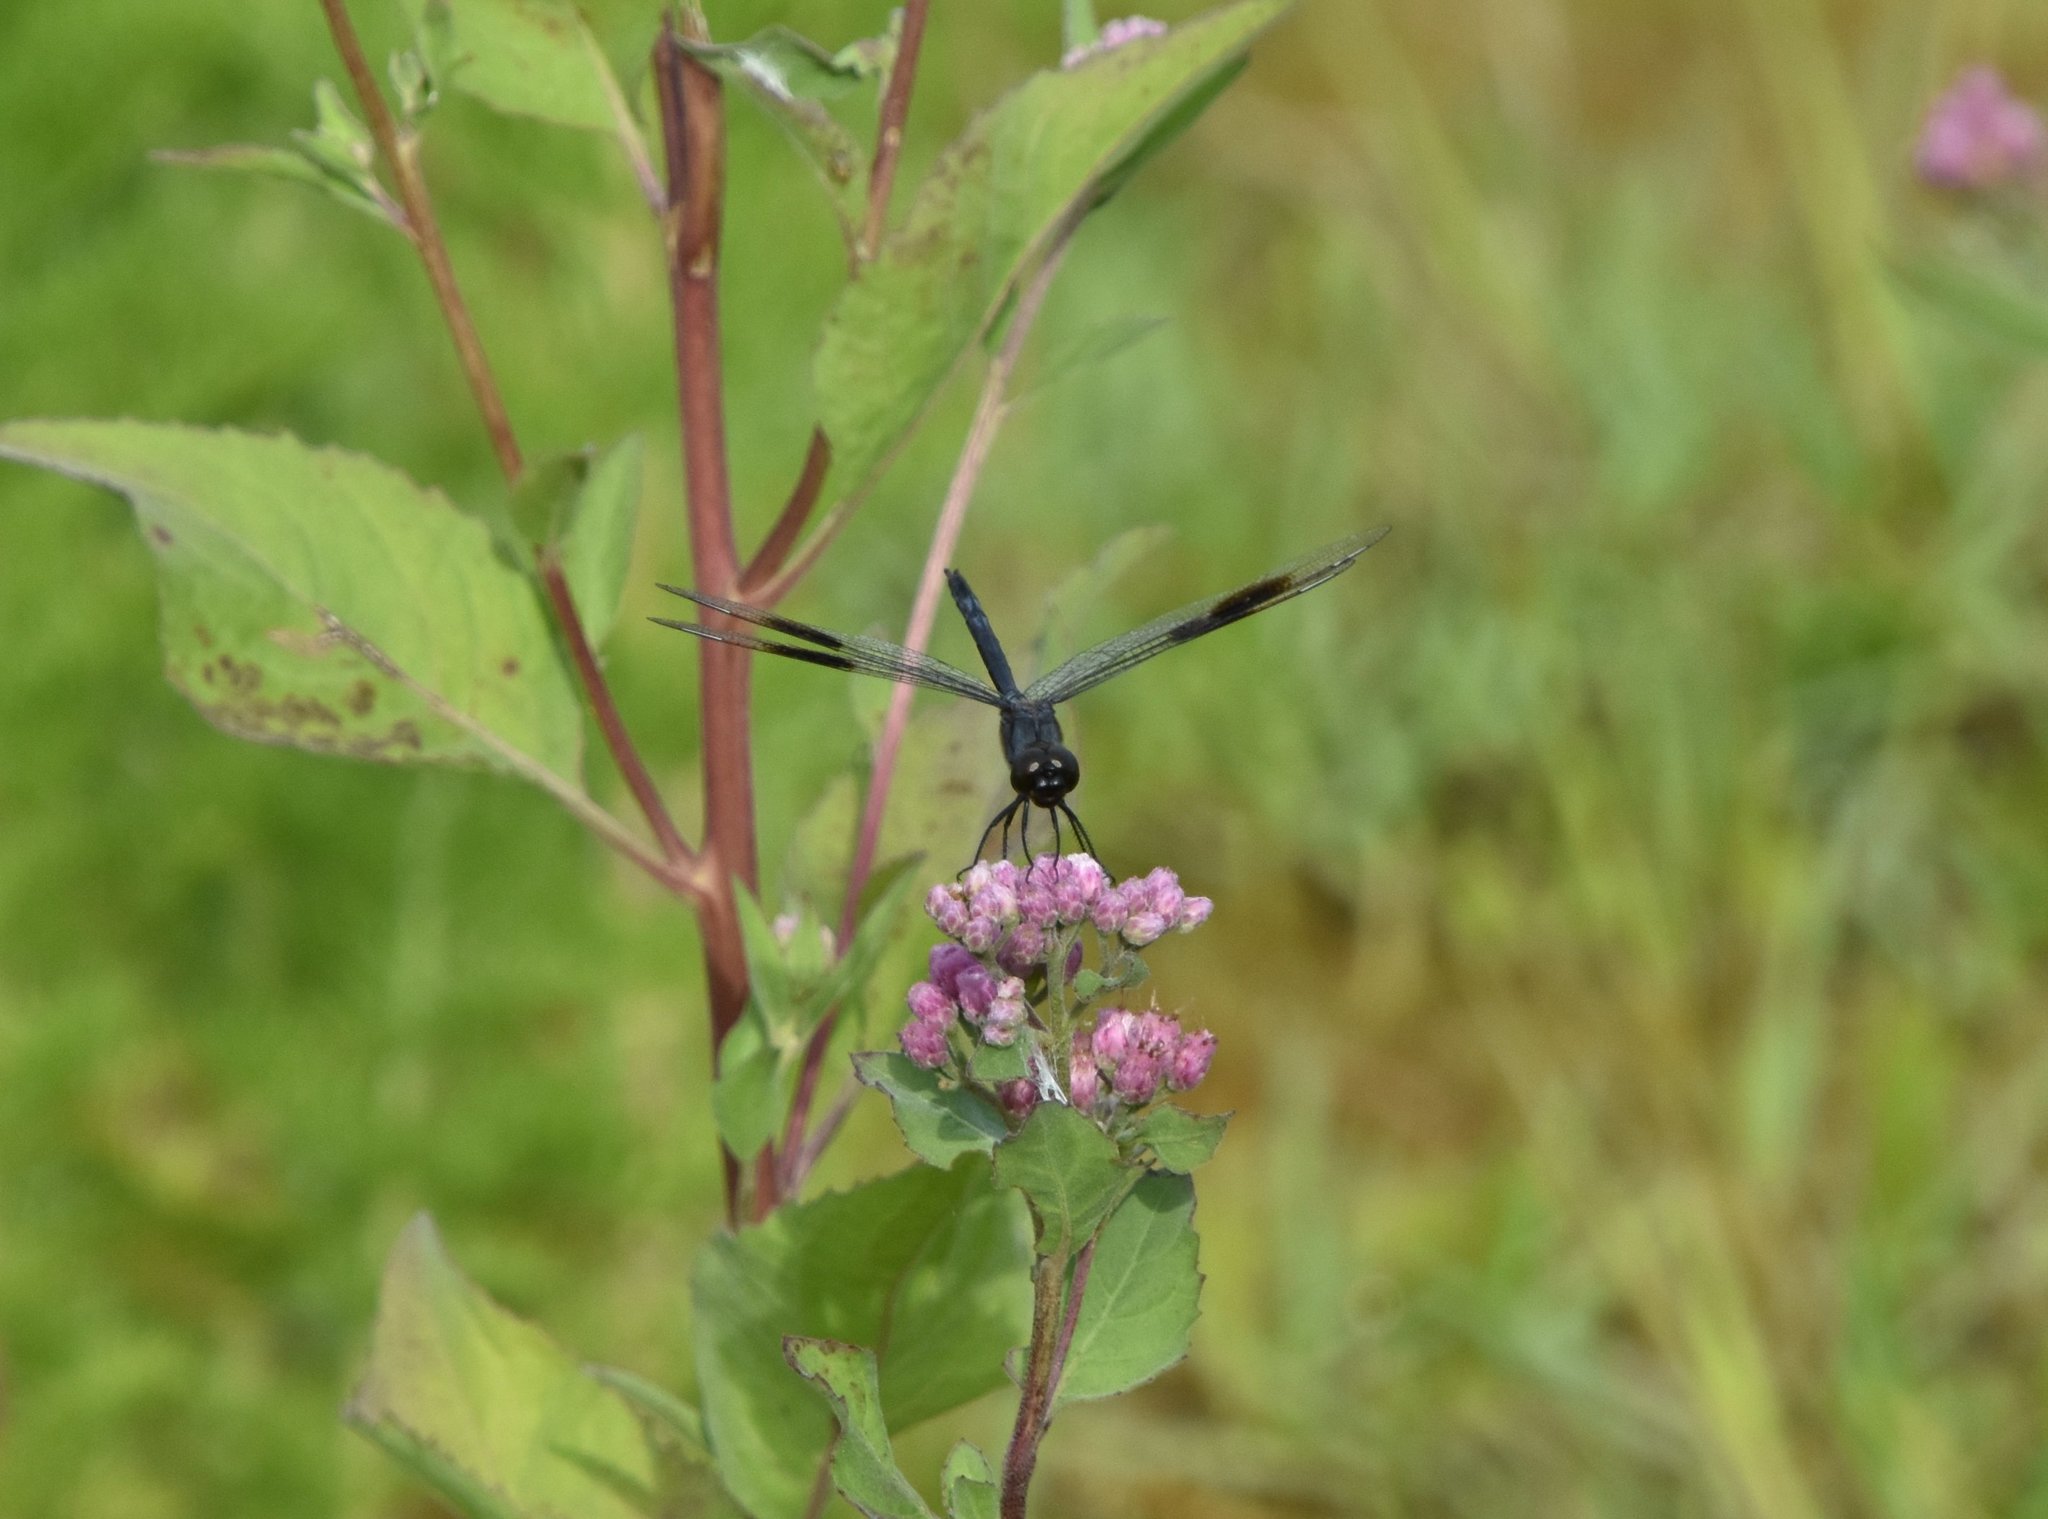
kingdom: Animalia
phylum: Arthropoda
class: Insecta
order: Odonata
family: Libellulidae
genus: Brachymesia
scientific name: Brachymesia gravida
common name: Four-spotted pennant
